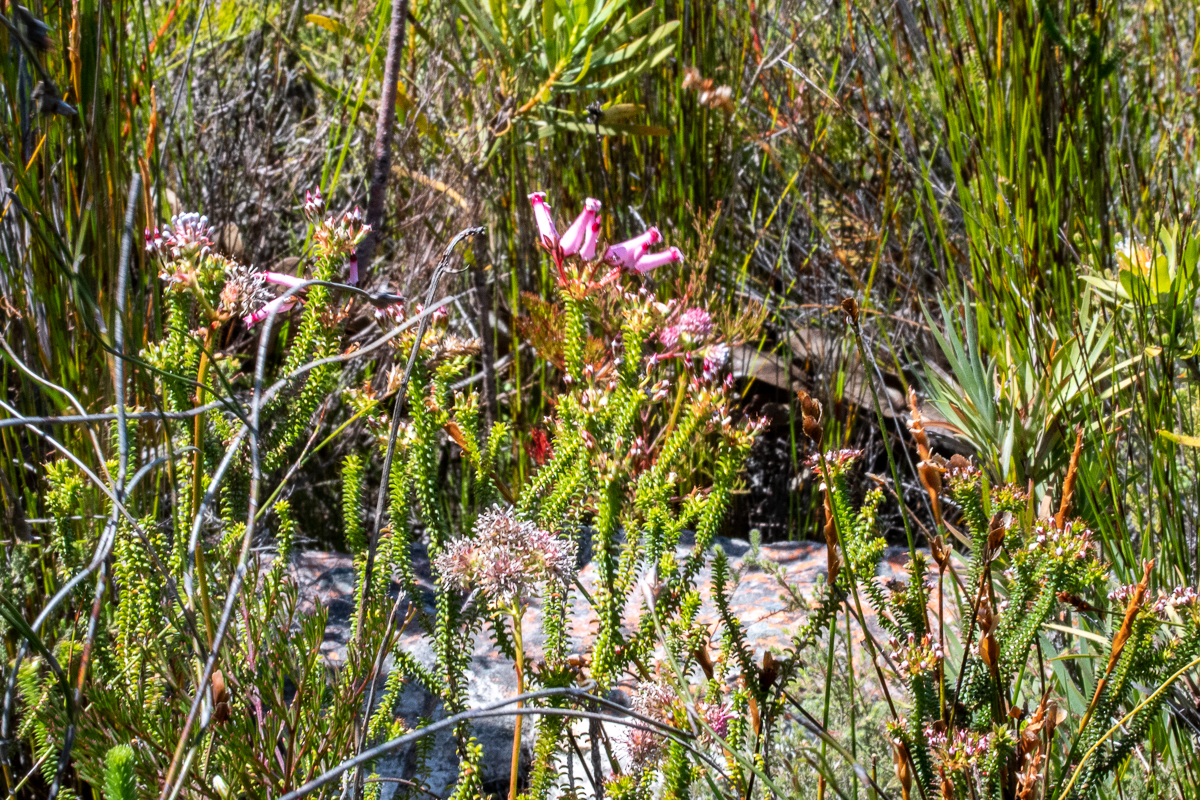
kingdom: Plantae
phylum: Tracheophyta
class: Magnoliopsida
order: Ericales
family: Ericaceae
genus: Erica
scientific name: Erica retorta
